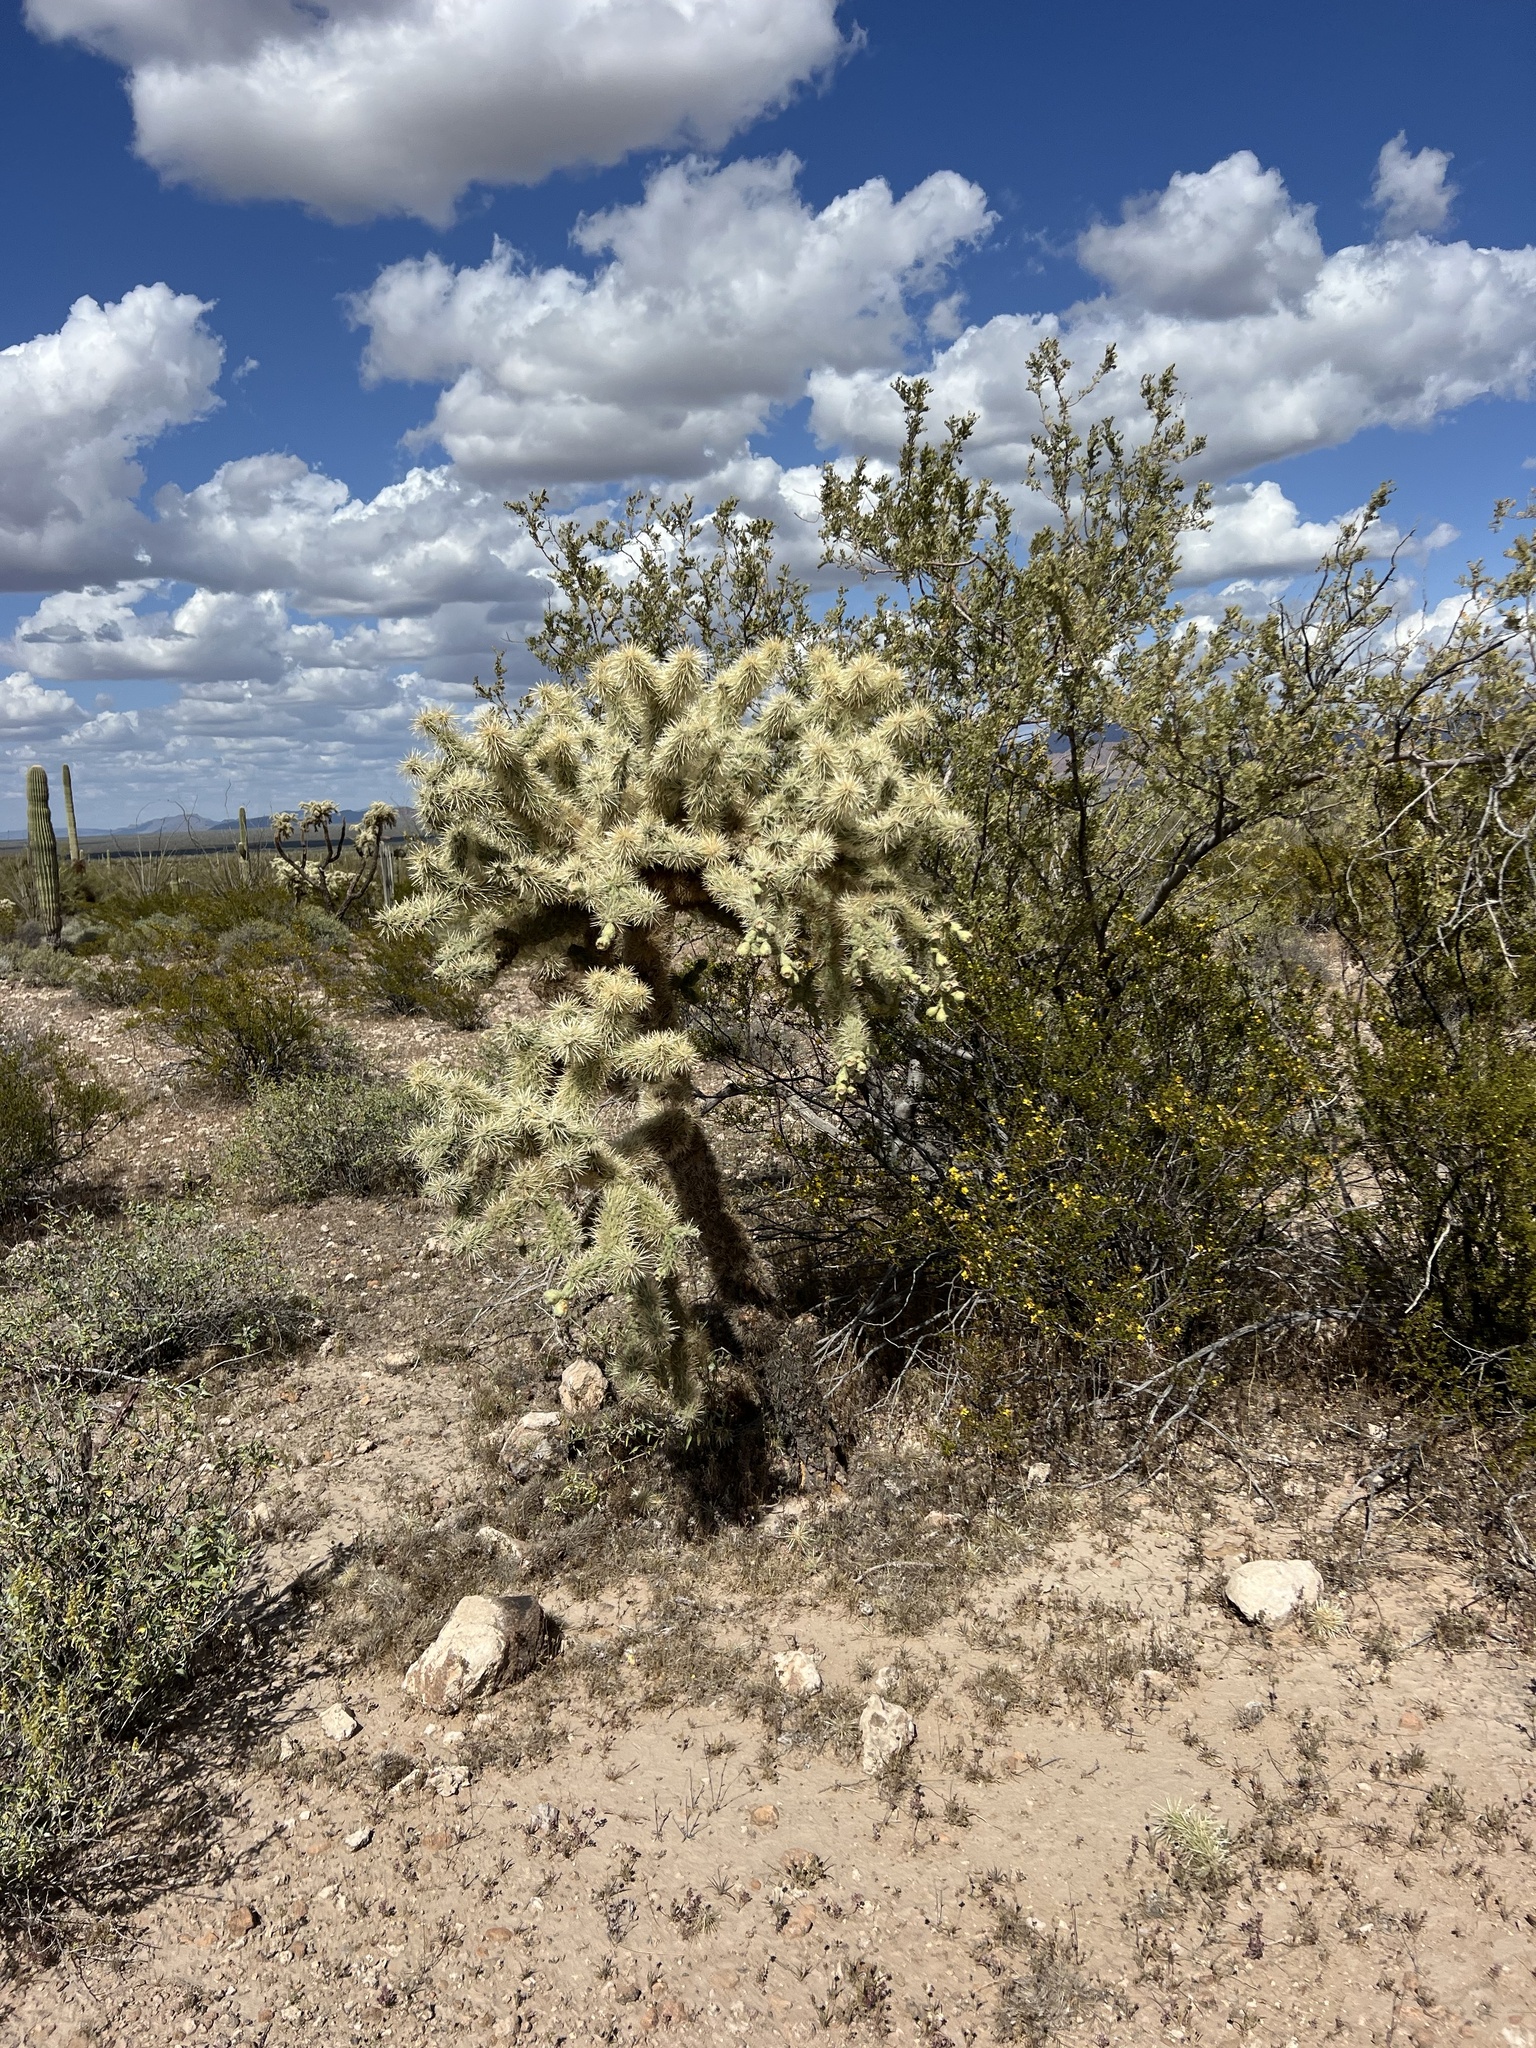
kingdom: Plantae
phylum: Tracheophyta
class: Magnoliopsida
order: Caryophyllales
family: Cactaceae
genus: Cylindropuntia
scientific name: Cylindropuntia fulgida
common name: Jumping cholla
